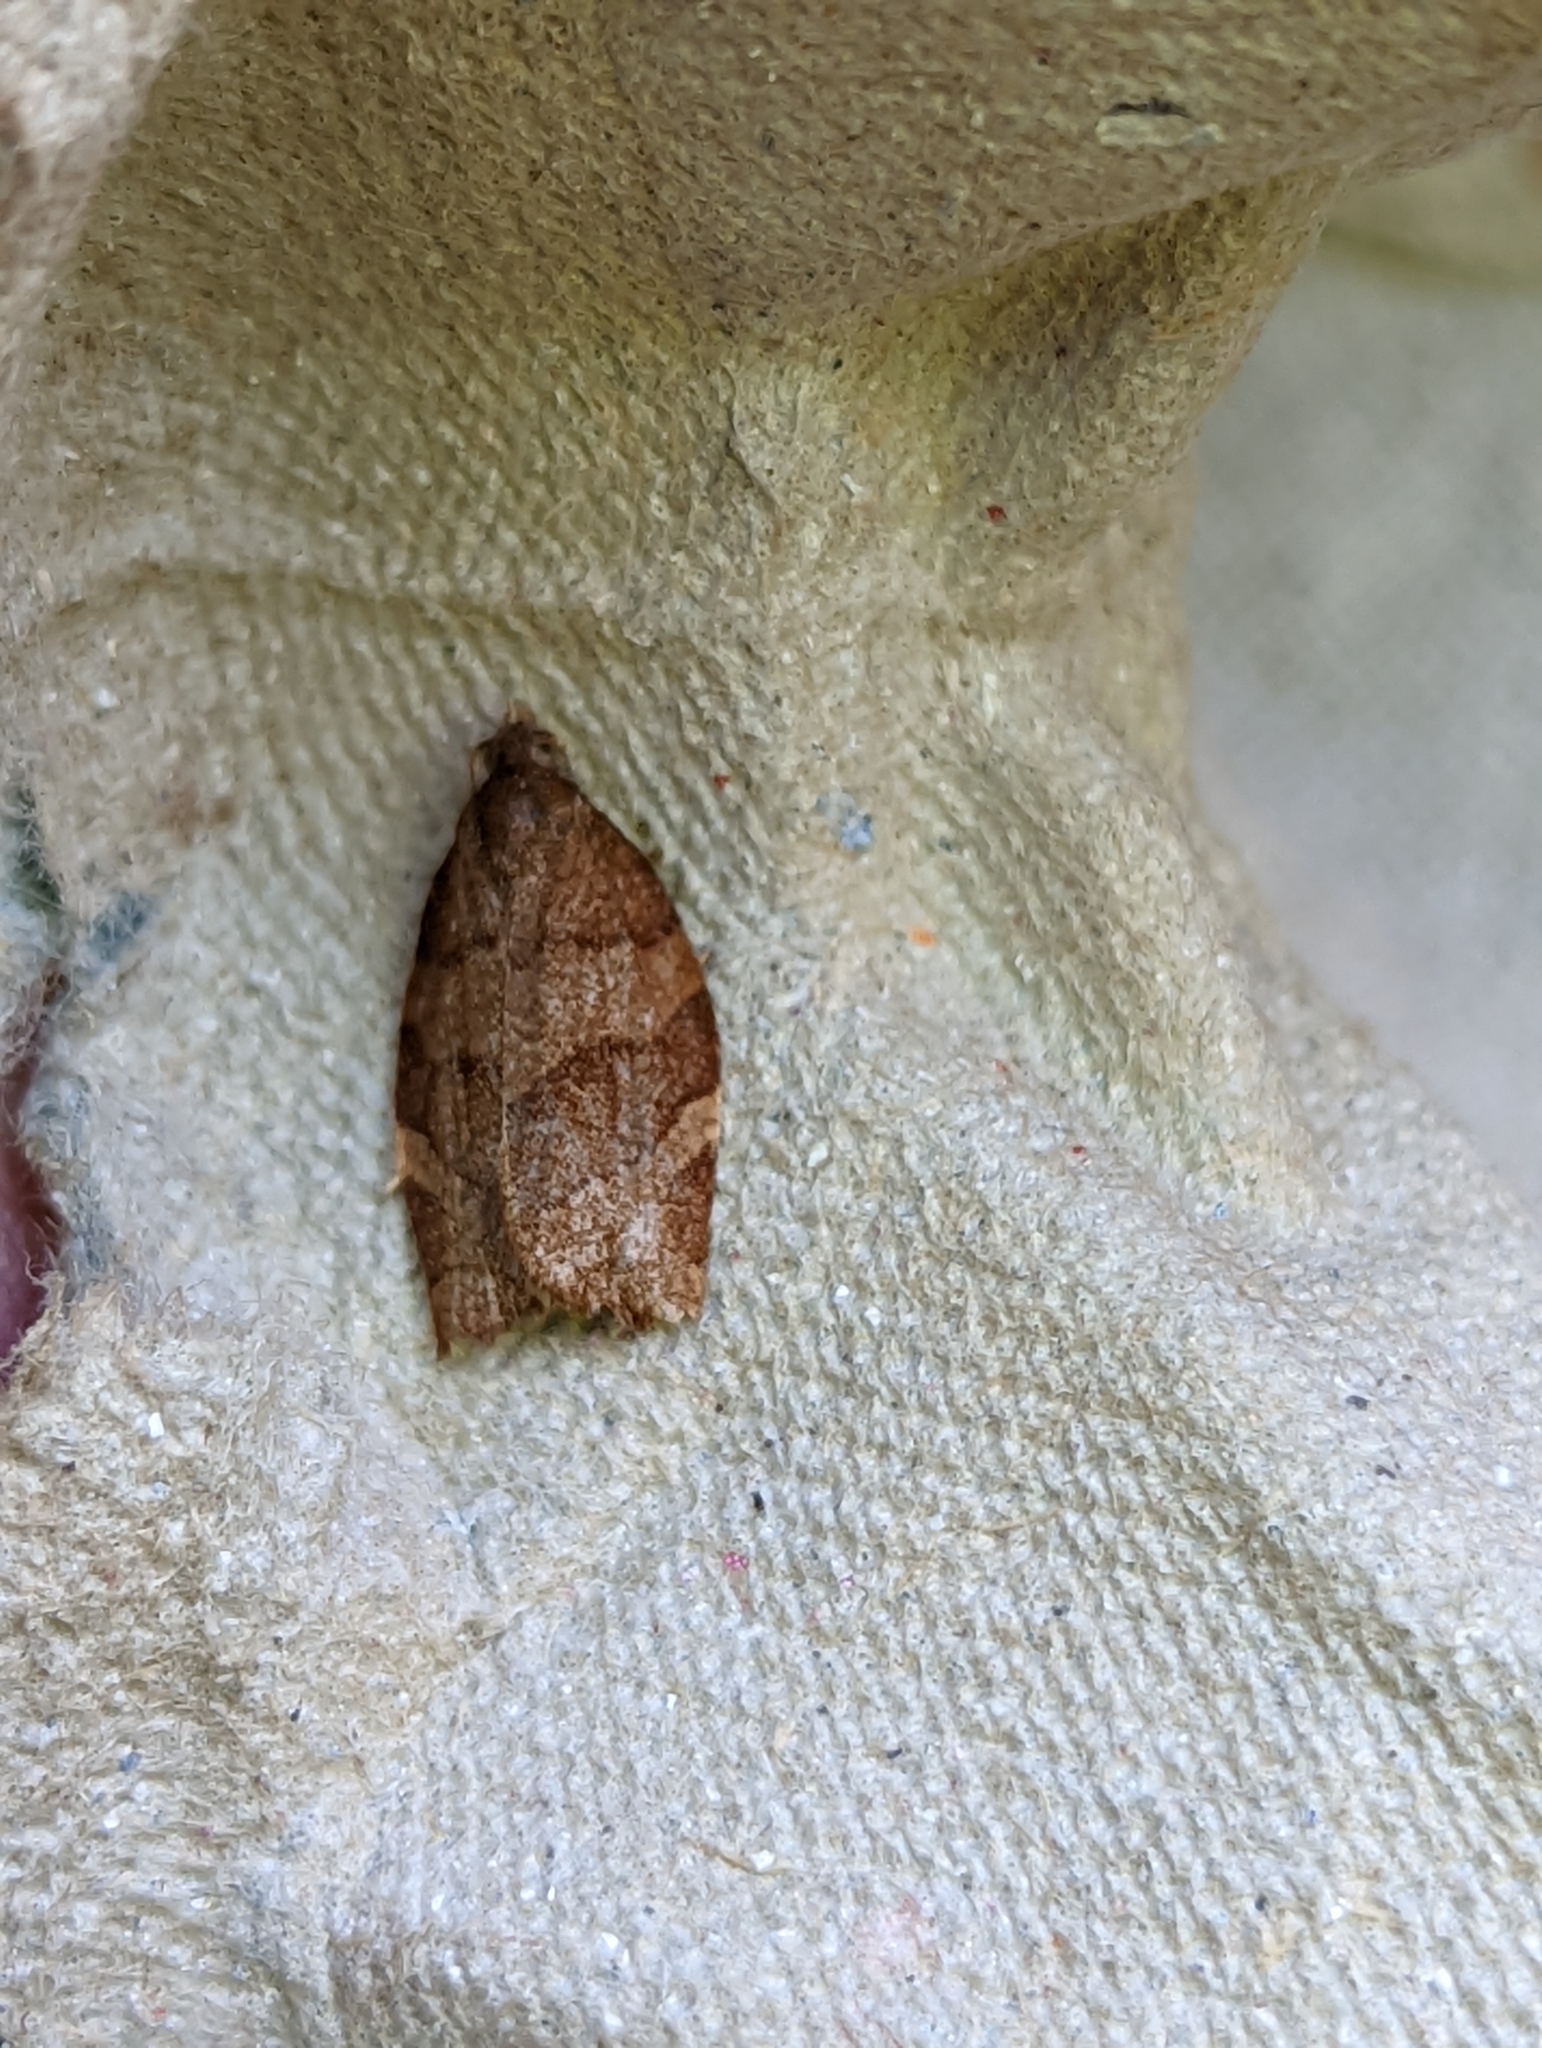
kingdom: Animalia
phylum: Arthropoda
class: Insecta
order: Lepidoptera
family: Tortricidae
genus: Pandemis
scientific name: Pandemis cerasana
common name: Barred fruit-tree tortrix
